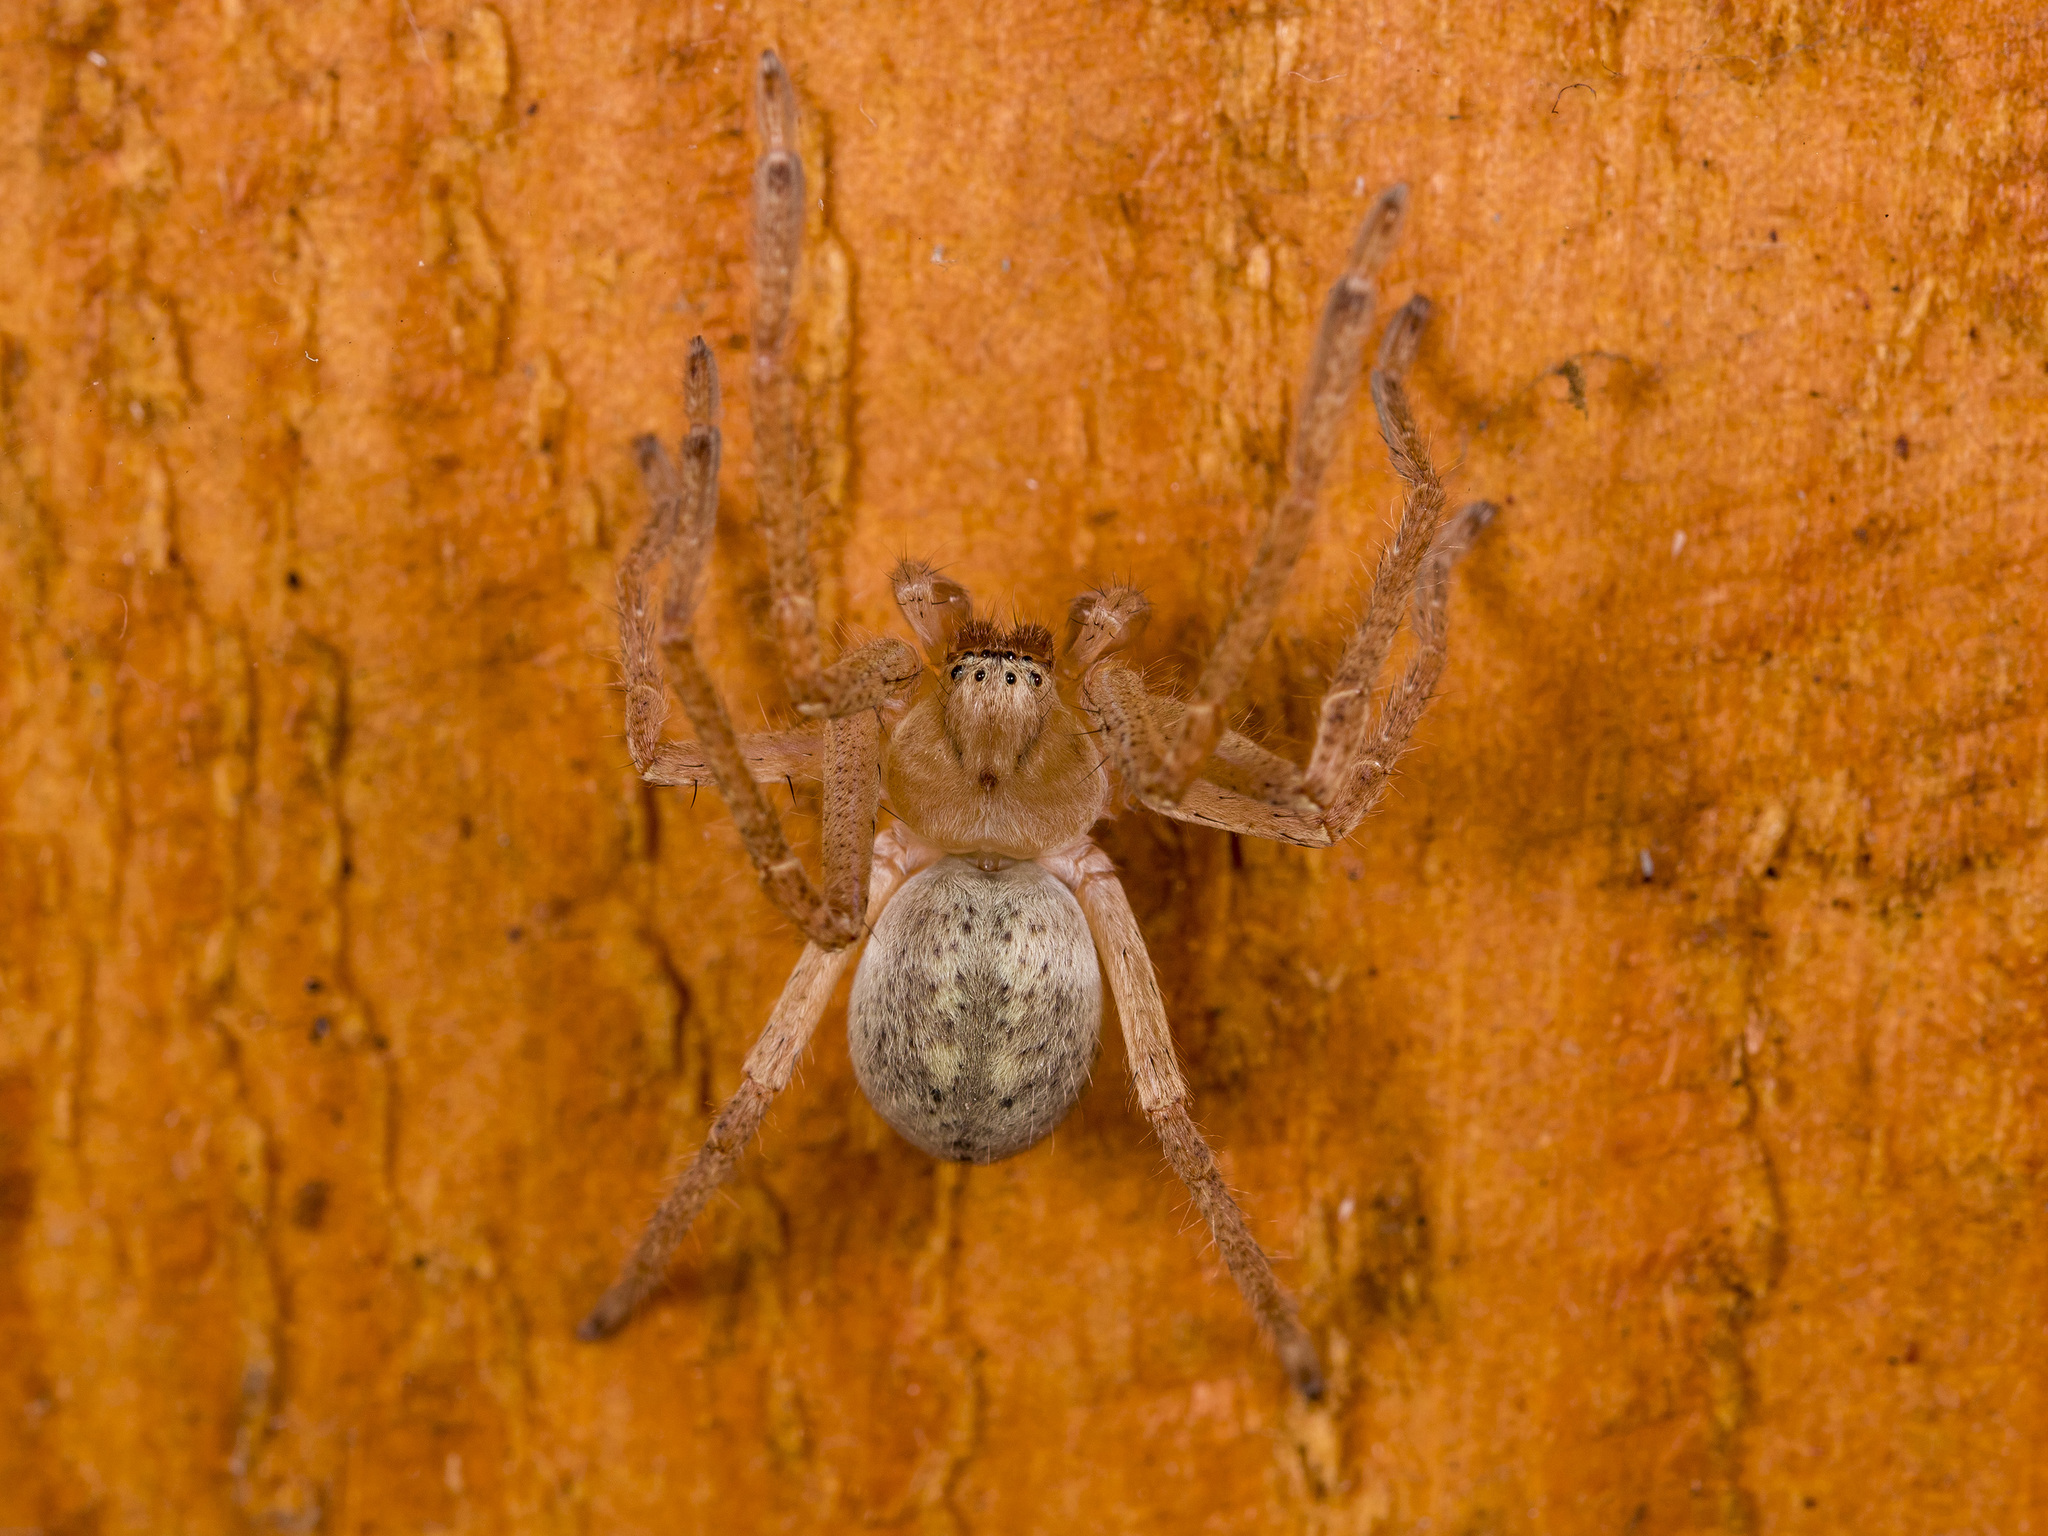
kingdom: Animalia
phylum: Arthropoda
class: Arachnida
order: Araneae
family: Sparassidae
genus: Olios
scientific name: Olios sericeus
